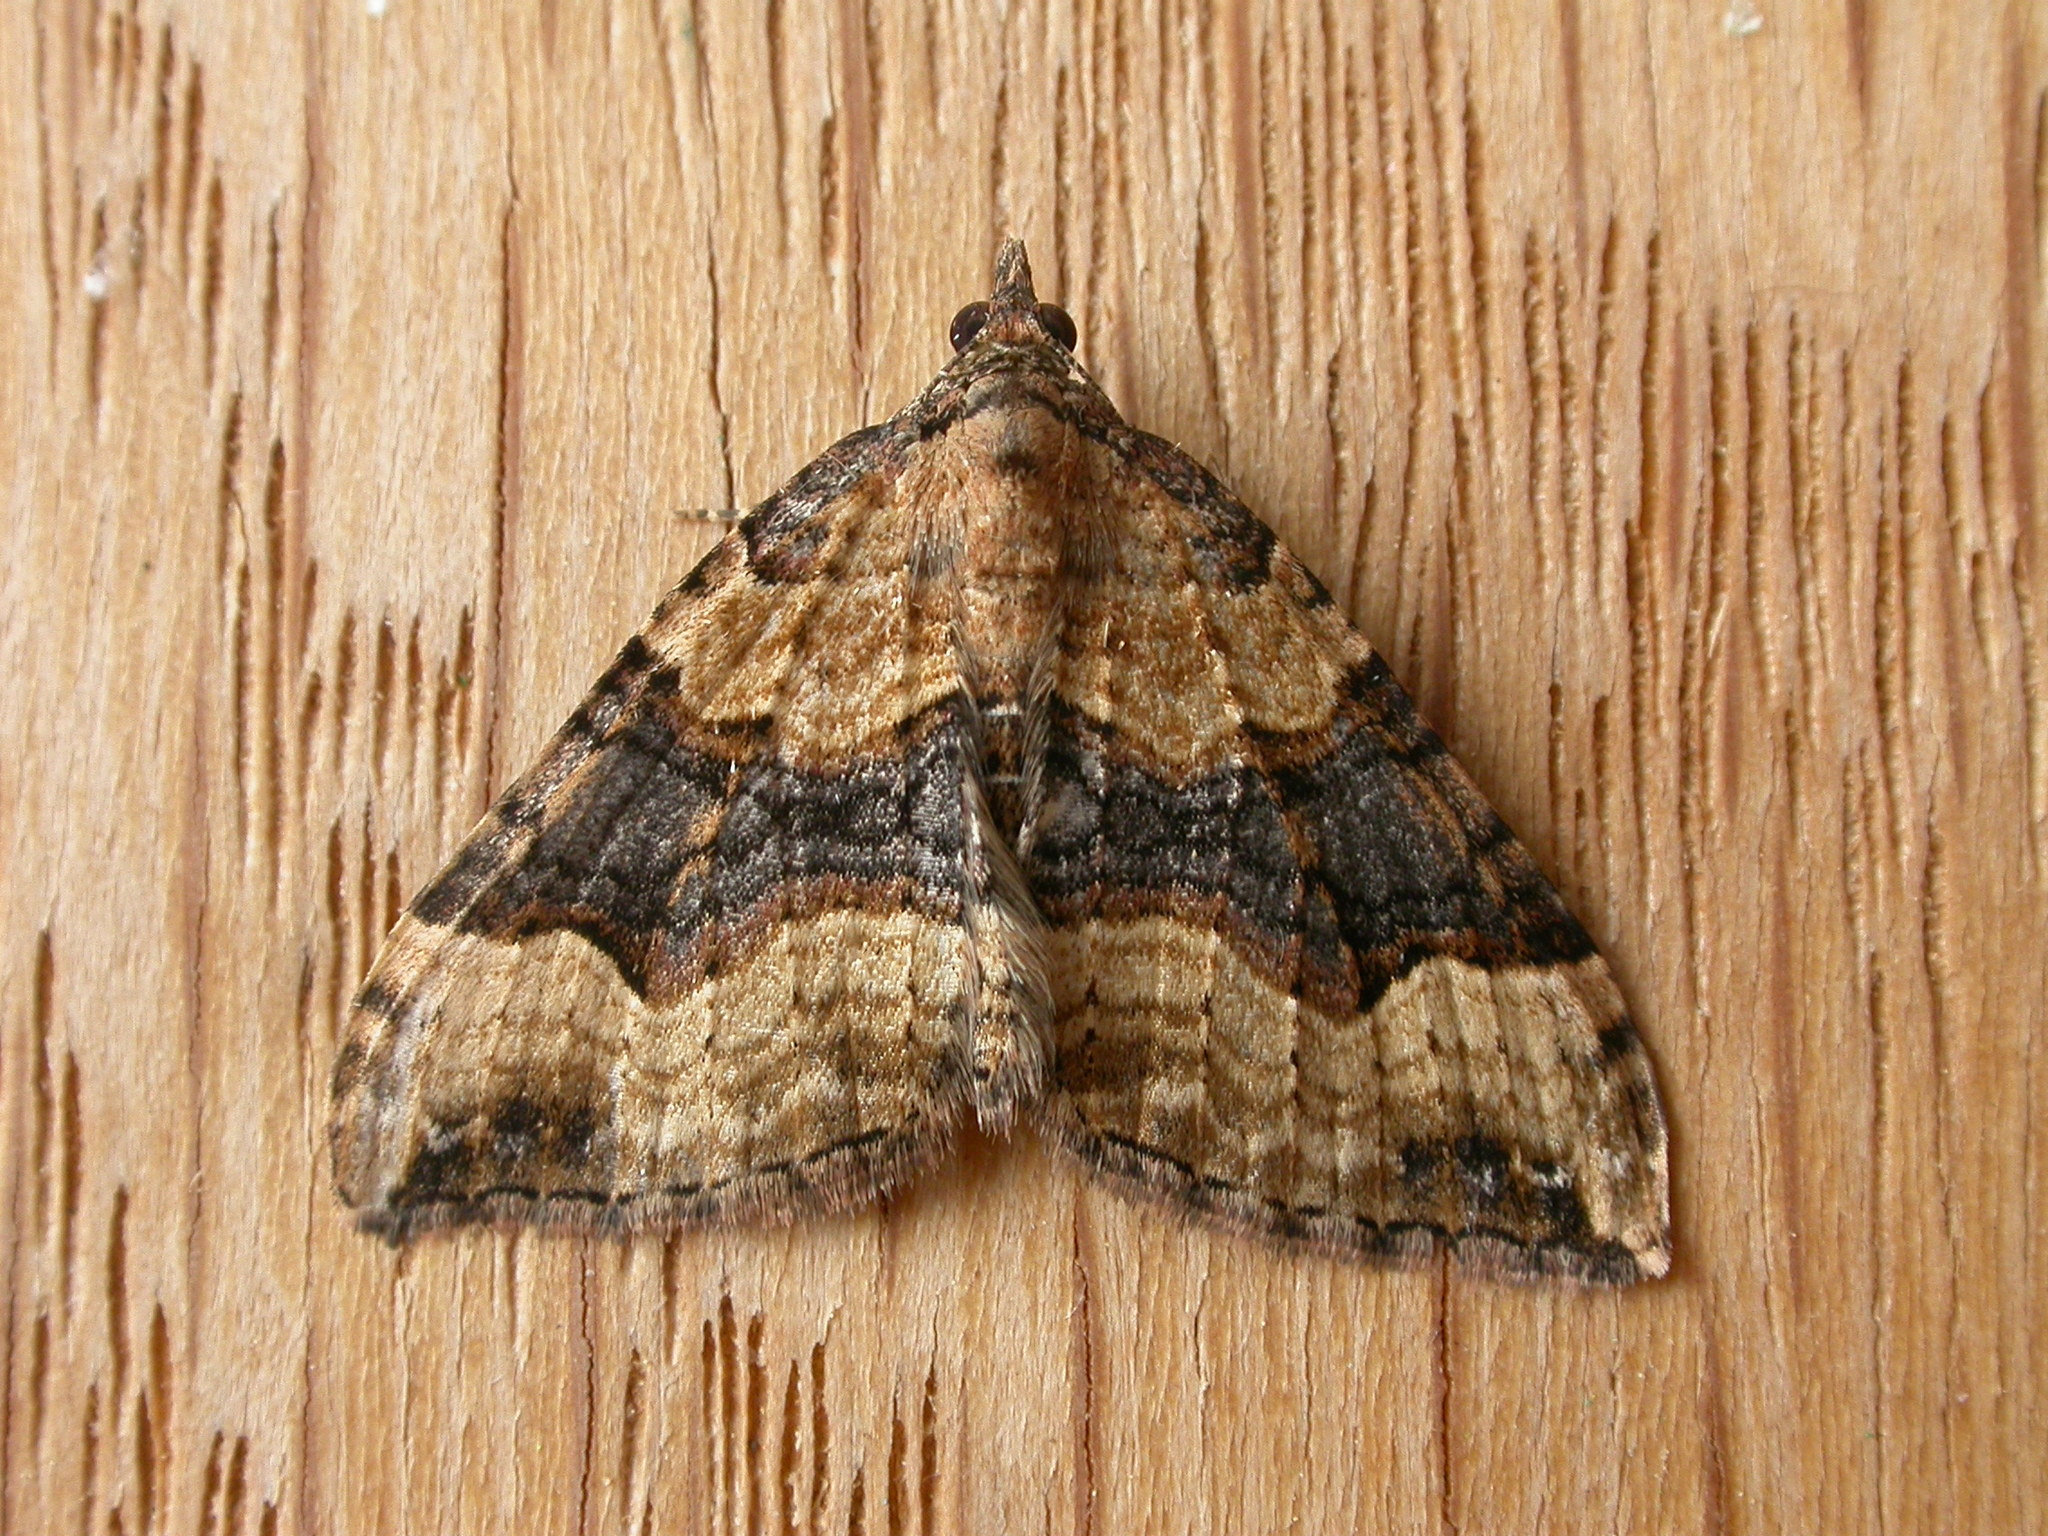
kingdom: Animalia
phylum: Arthropoda
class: Insecta
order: Lepidoptera
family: Geometridae
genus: Epyaxa
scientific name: Epyaxa subidaria
